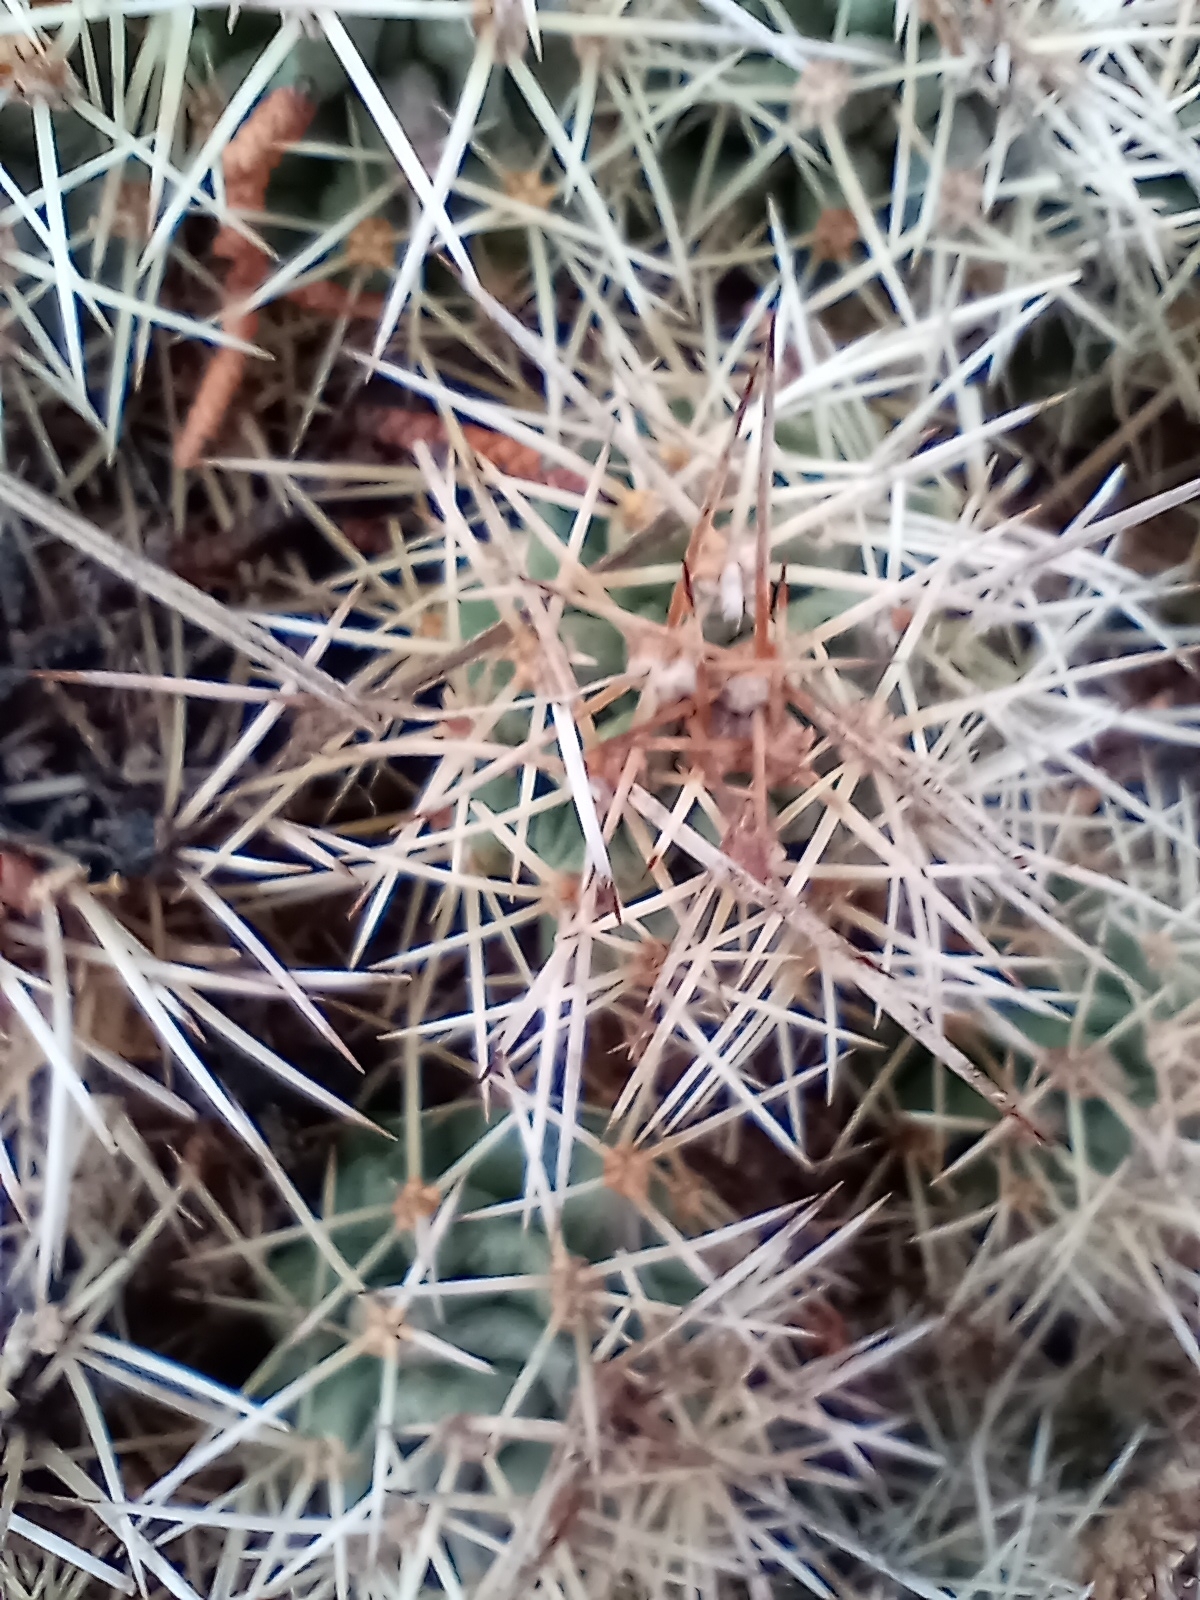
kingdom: Plantae
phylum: Tracheophyta
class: Magnoliopsida
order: Caryophyllales
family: Cactaceae
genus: Echinocereus
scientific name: Echinocereus triglochidiatus
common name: Claretcup hedgehog
